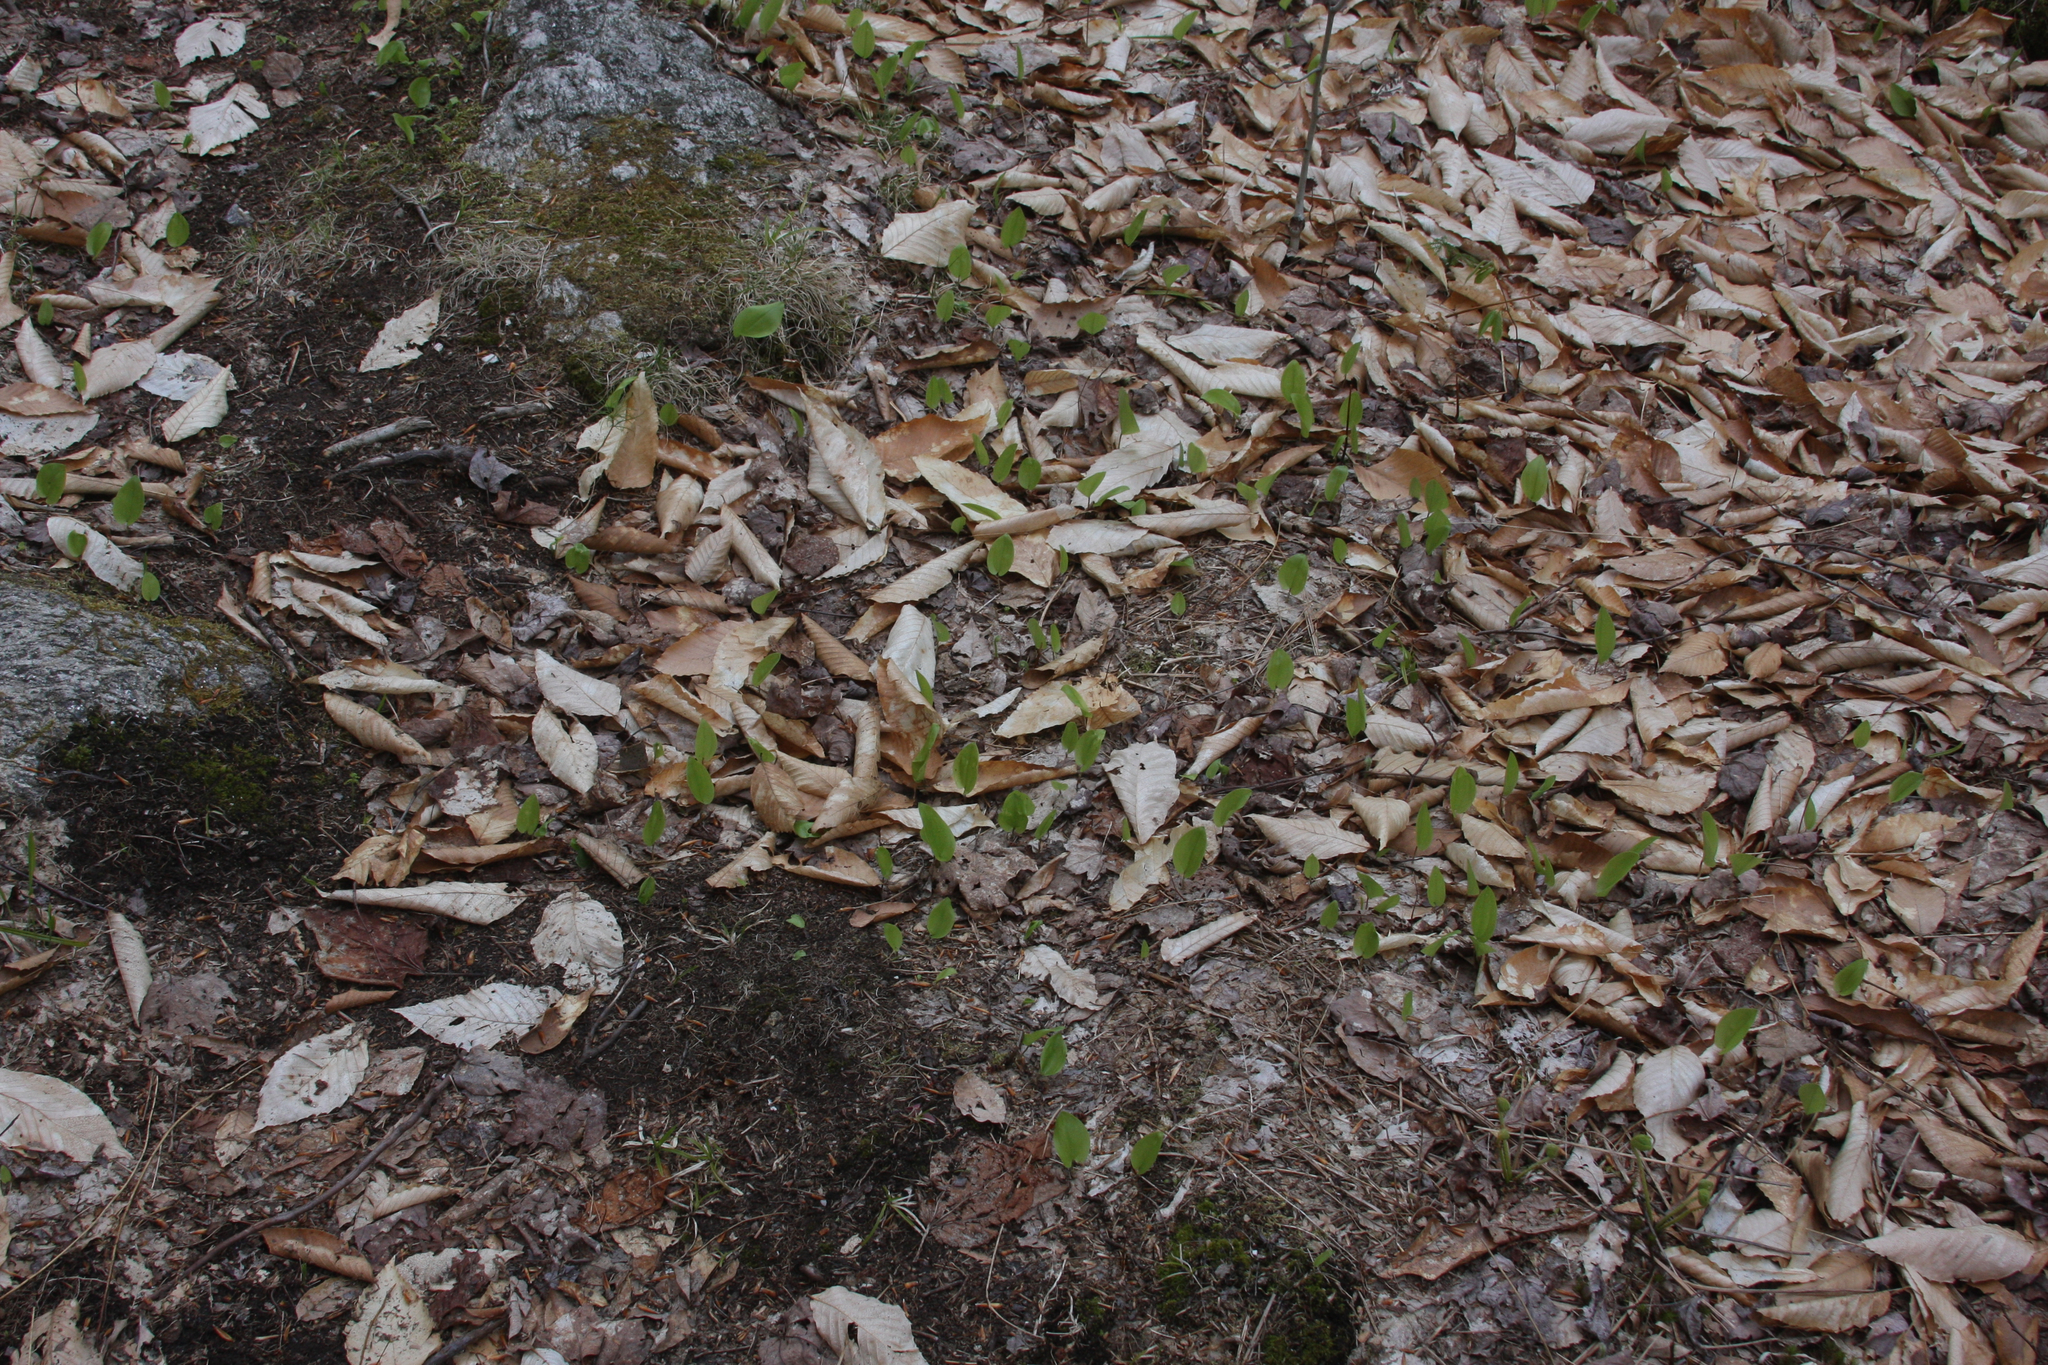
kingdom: Plantae
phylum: Tracheophyta
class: Magnoliopsida
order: Fagales
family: Fagaceae
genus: Fagus
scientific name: Fagus grandifolia
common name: American beech
